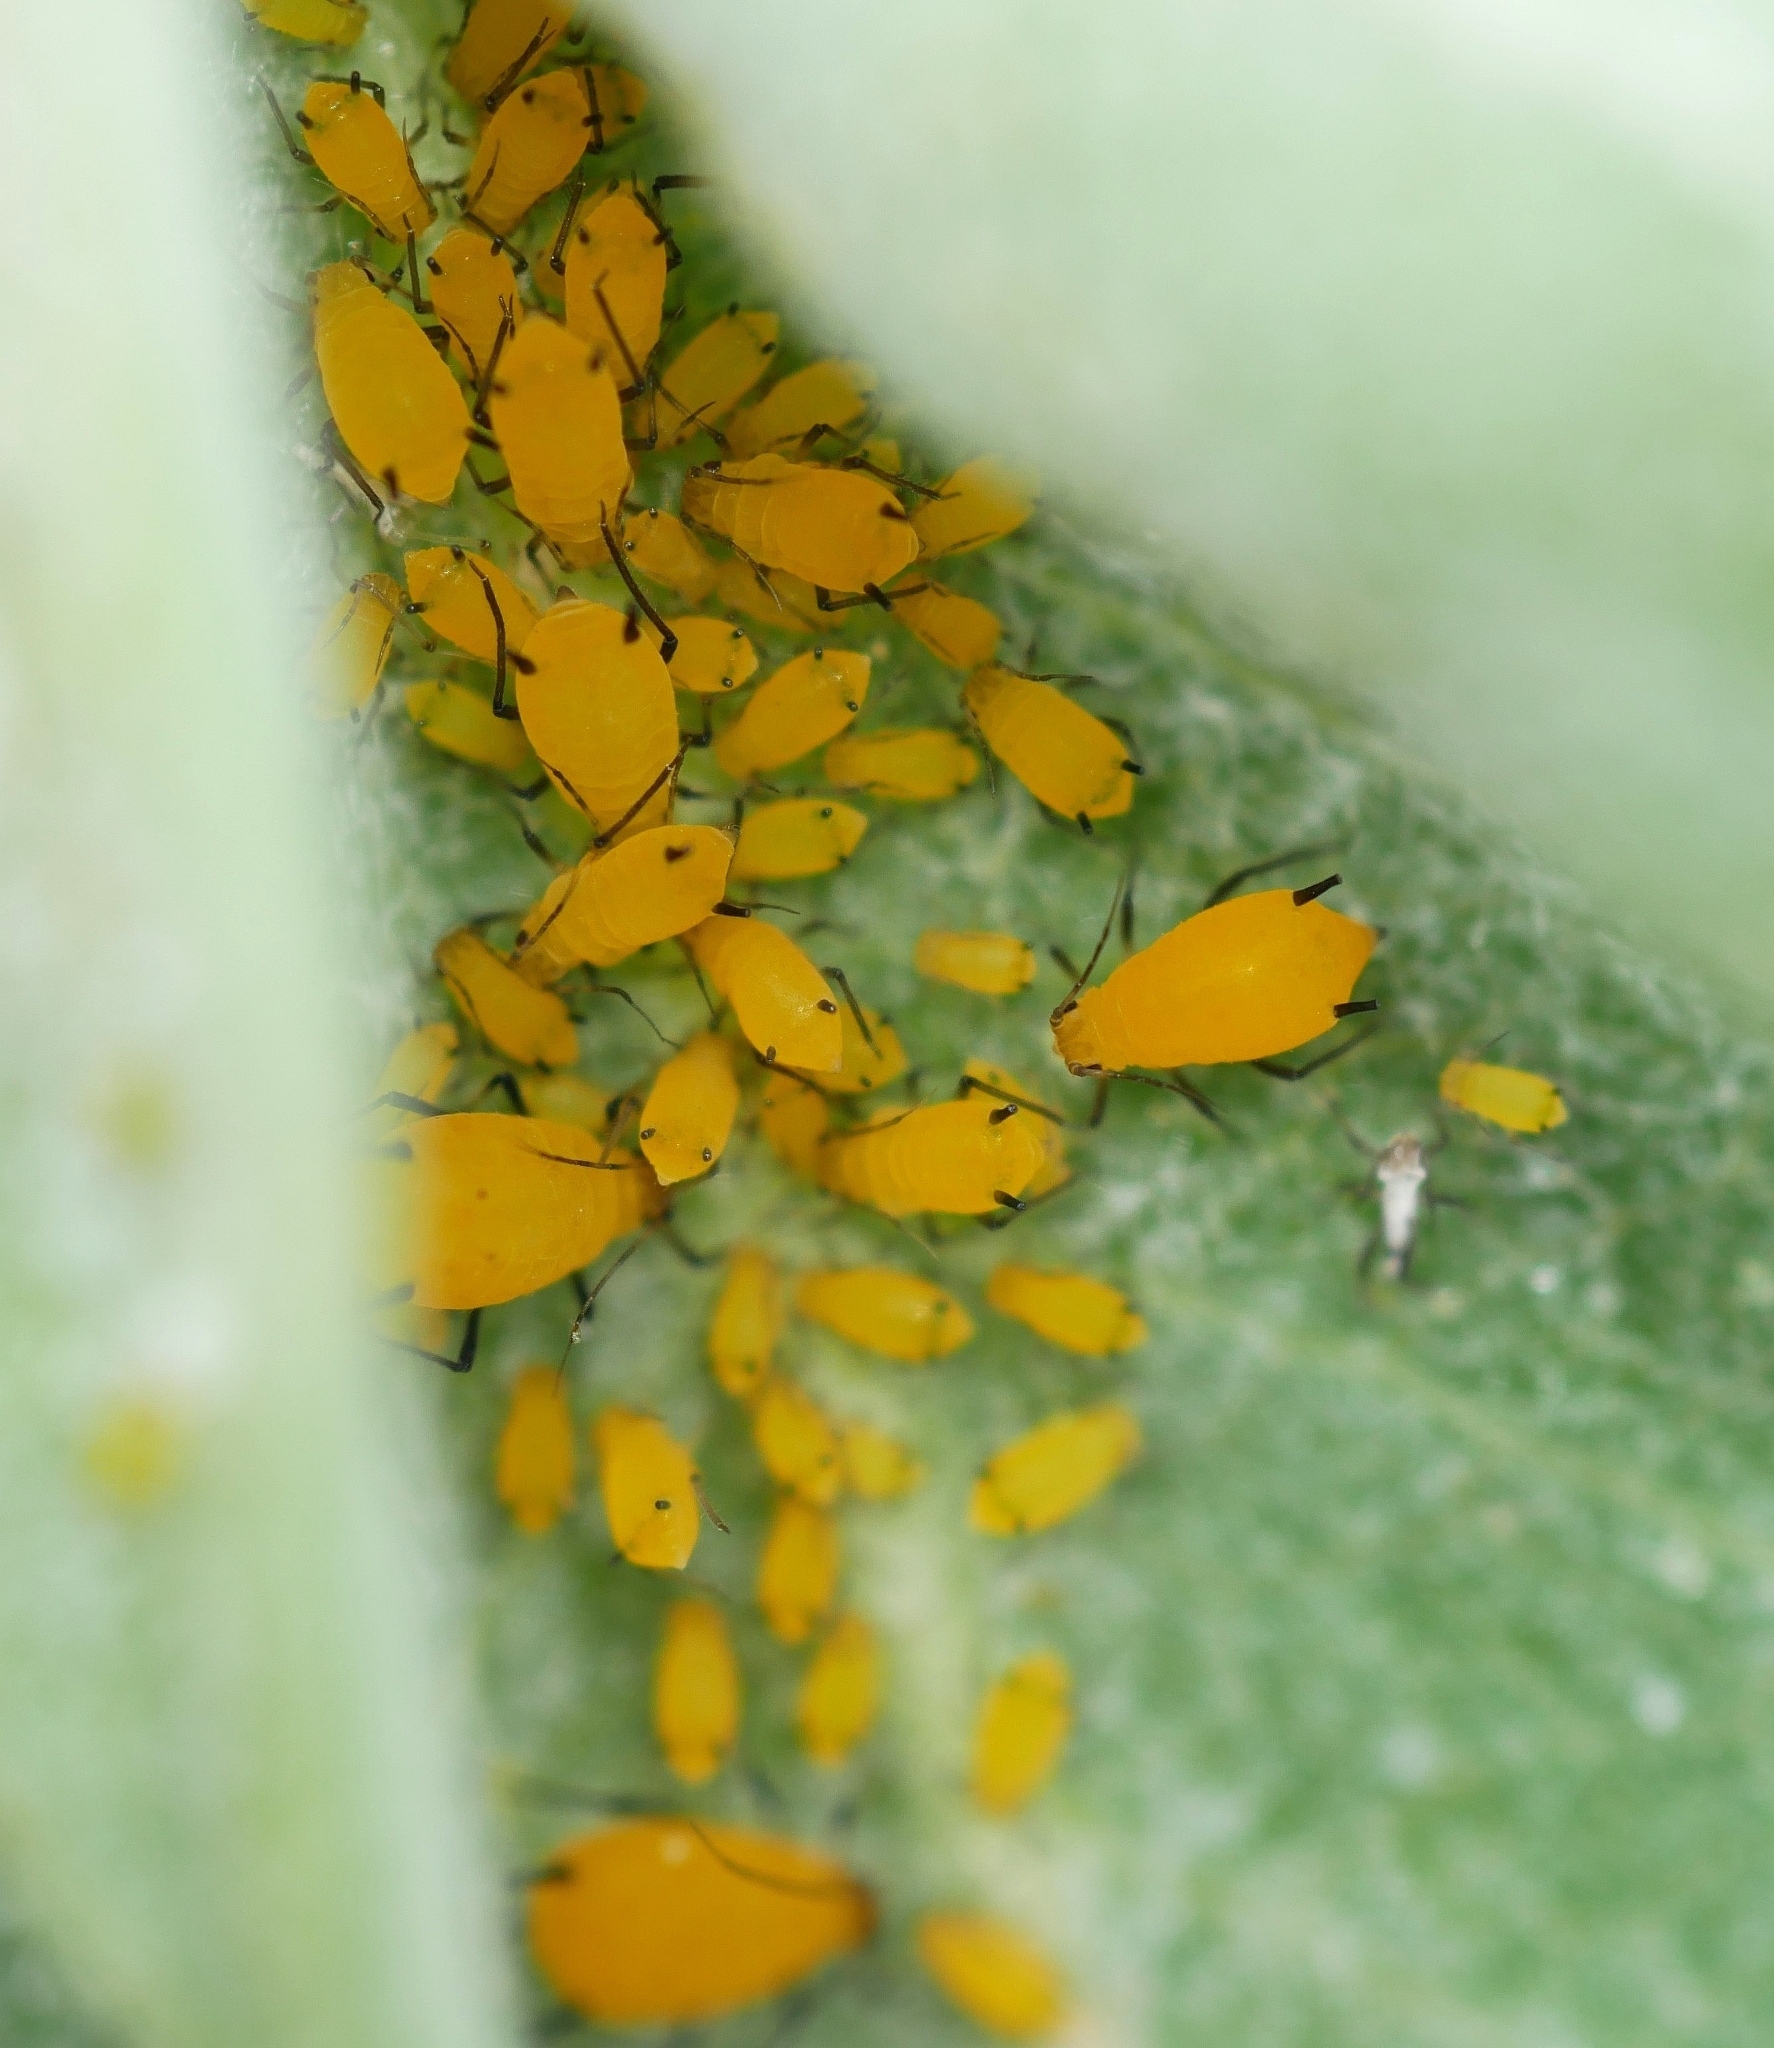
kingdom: Animalia
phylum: Arthropoda
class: Insecta
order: Hemiptera
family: Aphididae
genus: Aphis
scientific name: Aphis nerii
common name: Oleander aphid
